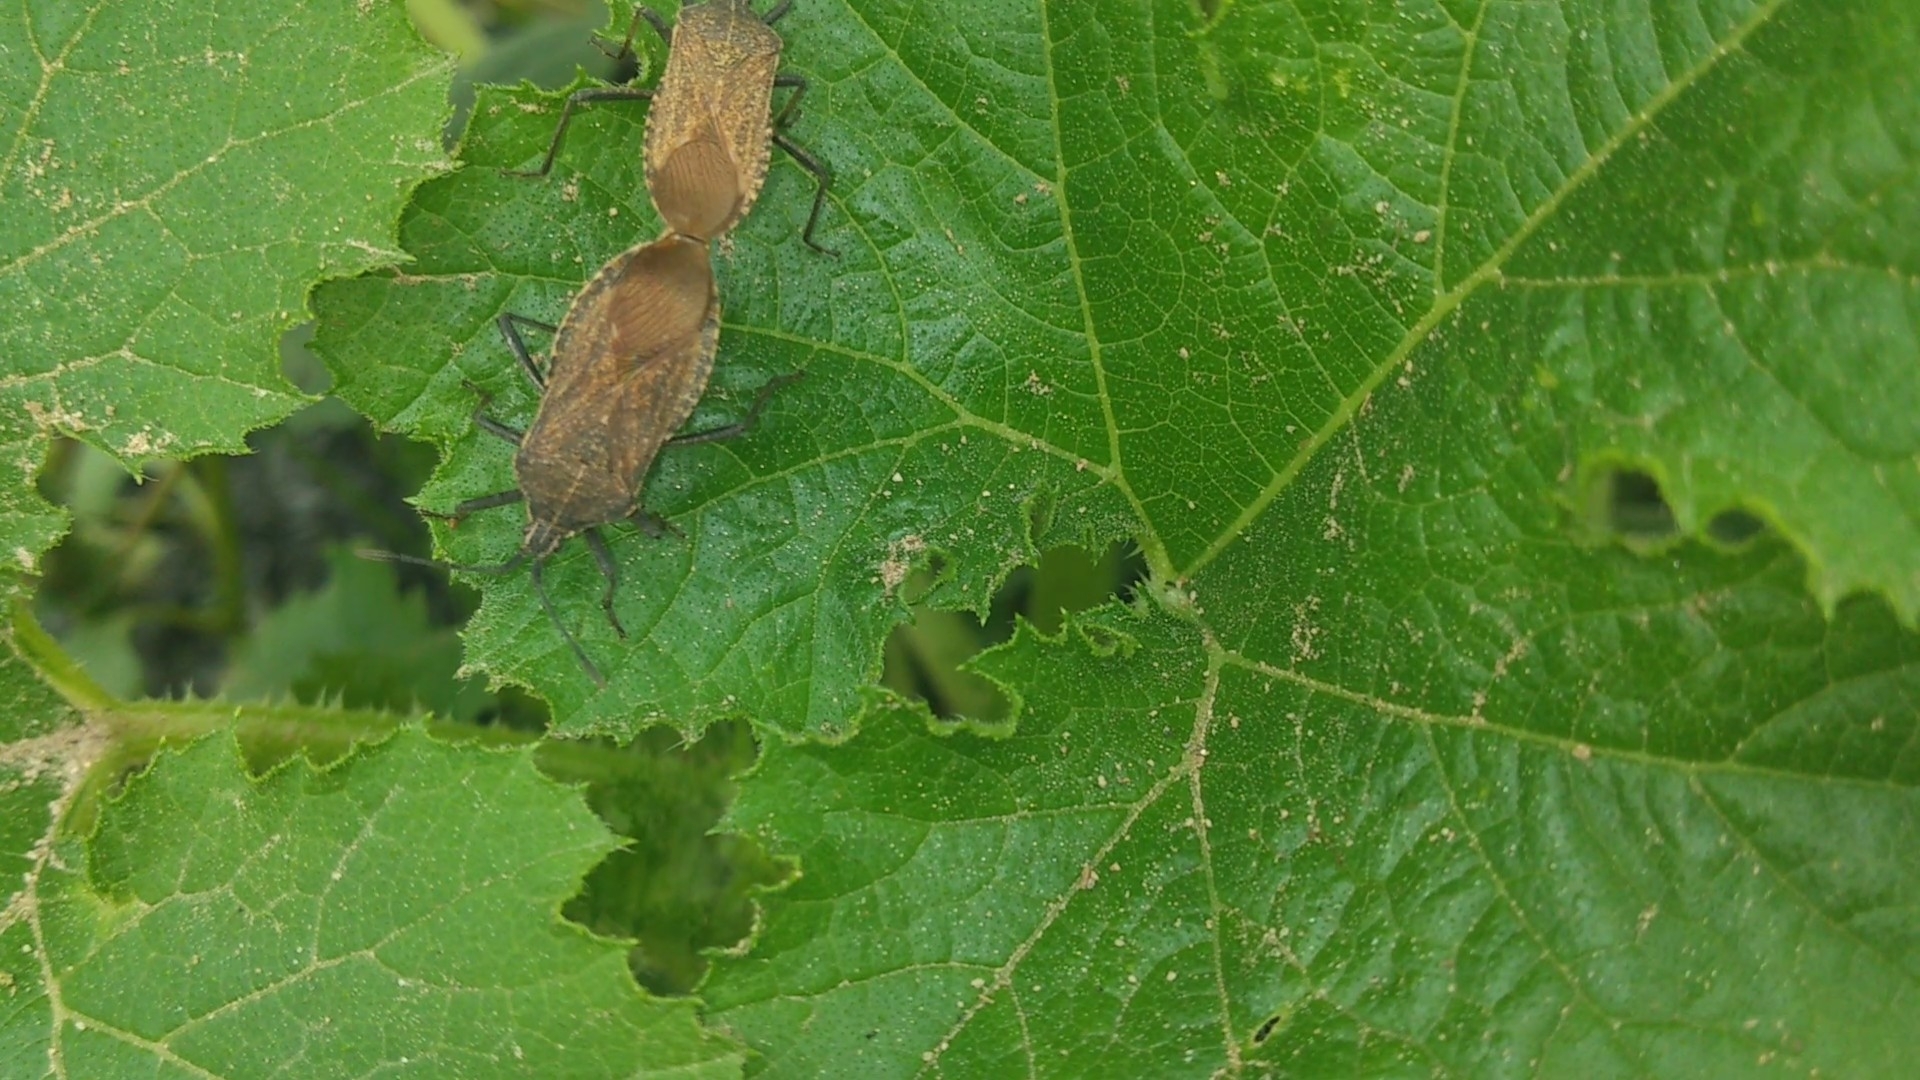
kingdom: Animalia
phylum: Arthropoda
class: Insecta
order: Hemiptera
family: Coreidae
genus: Anasa
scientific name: Anasa uhleri
